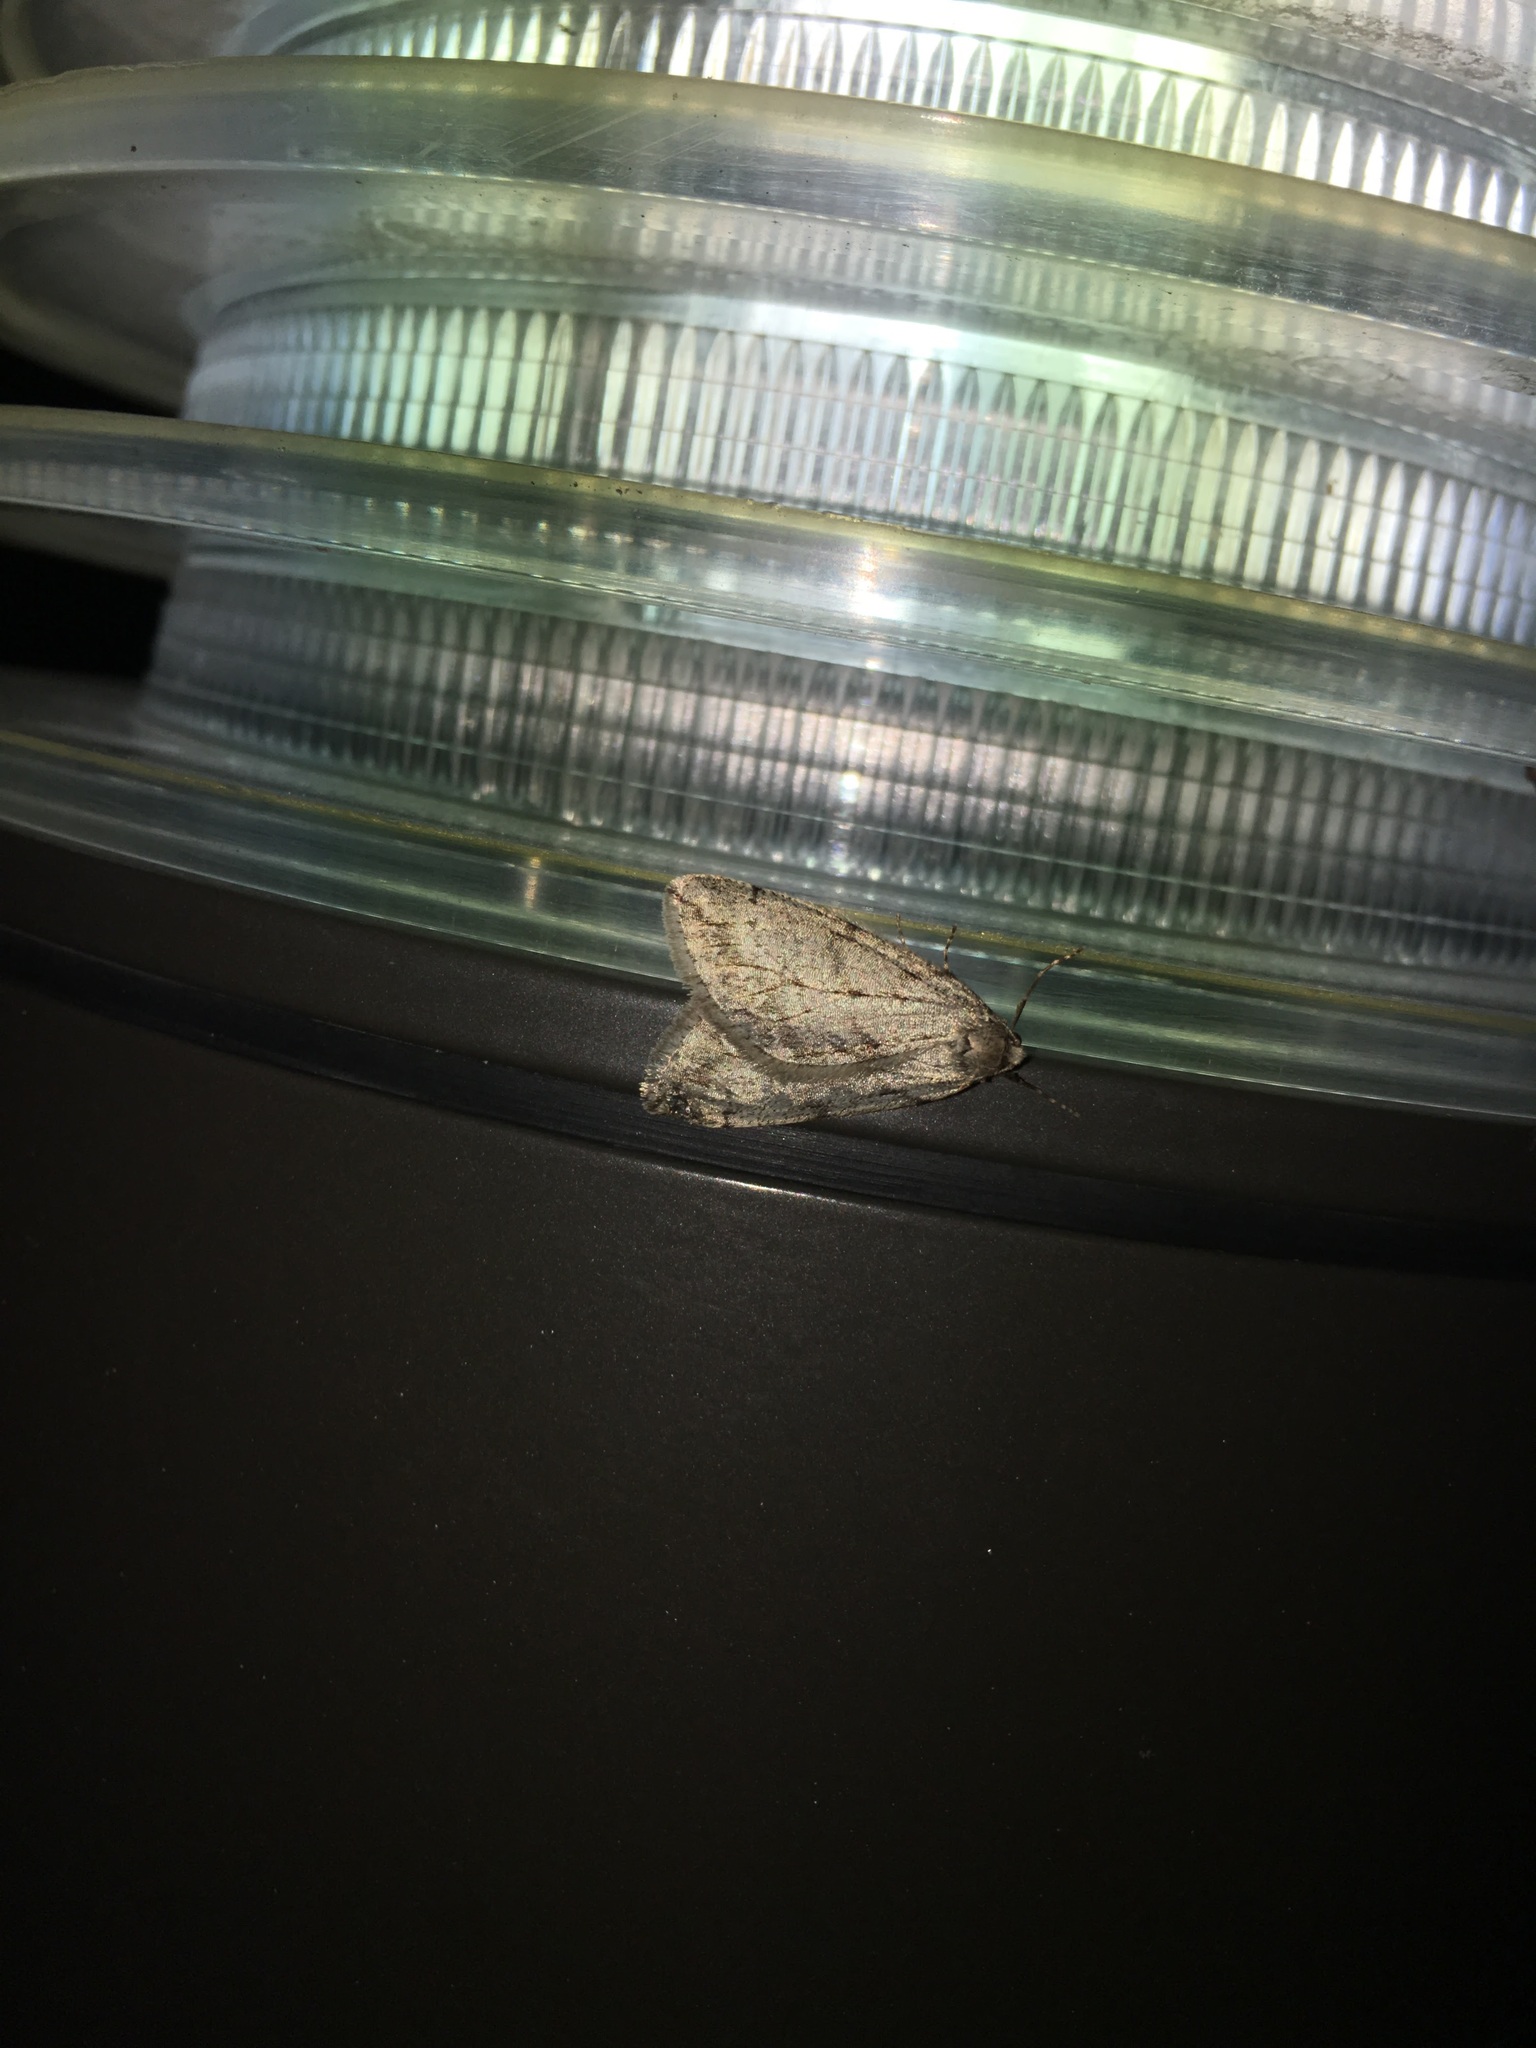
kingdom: Animalia
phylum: Arthropoda
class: Insecta
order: Lepidoptera
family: Geometridae
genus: Paleacrita
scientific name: Paleacrita vernata
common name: Spring cankerworm
